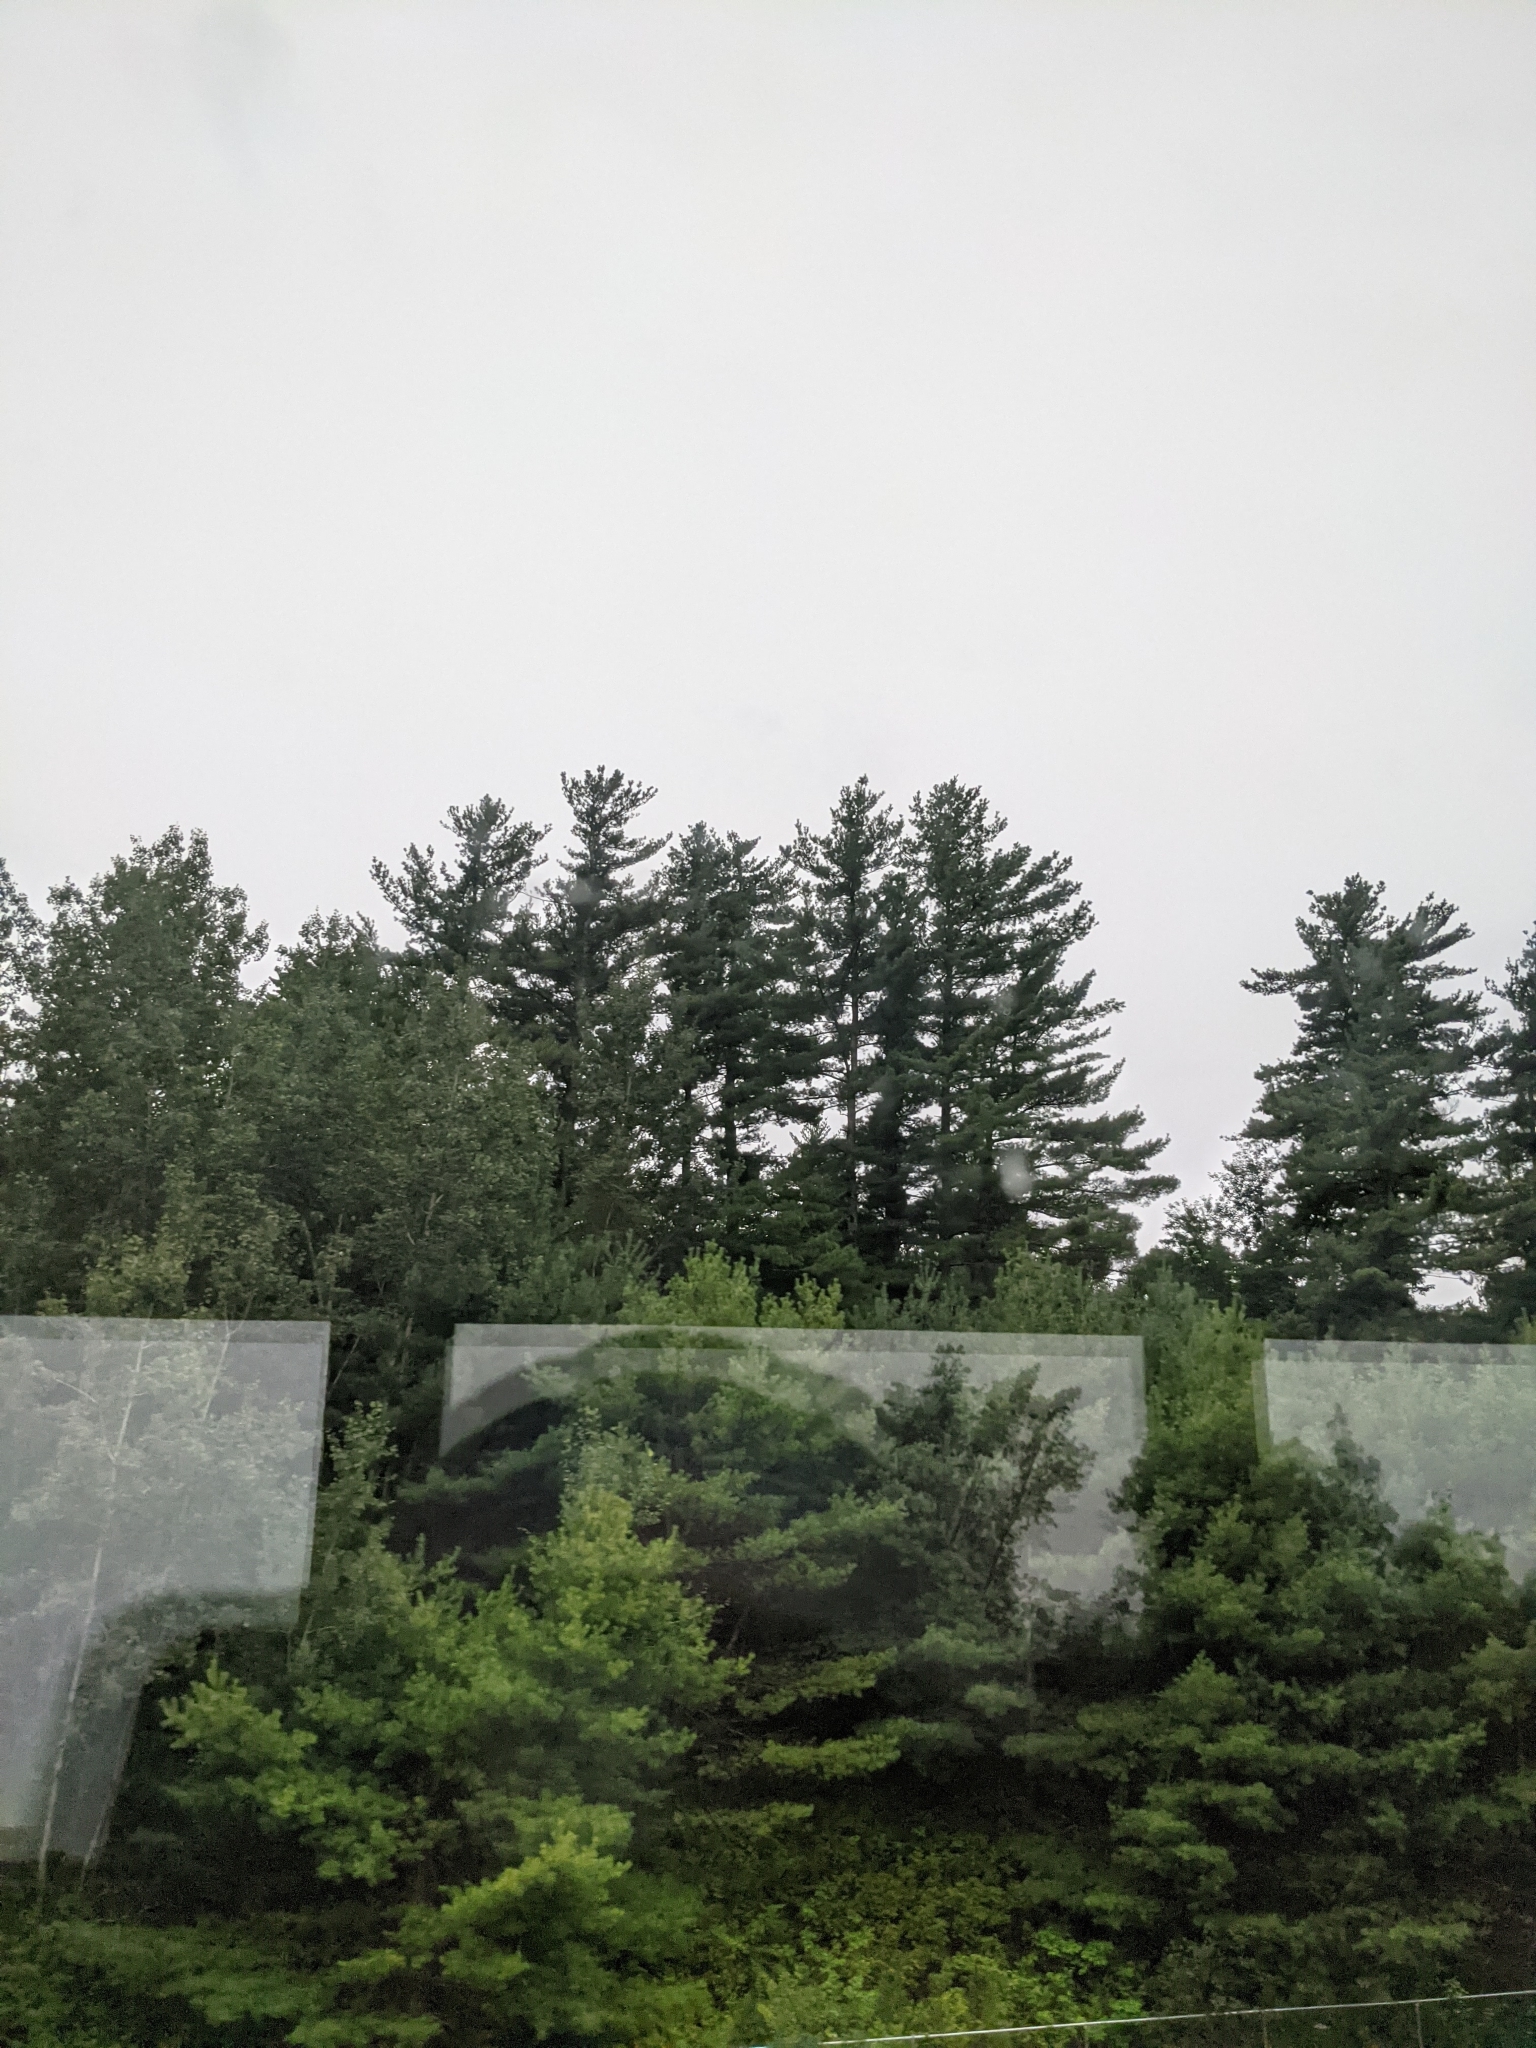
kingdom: Plantae
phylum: Tracheophyta
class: Pinopsida
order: Pinales
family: Pinaceae
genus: Pinus
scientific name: Pinus strobus
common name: Weymouth pine
